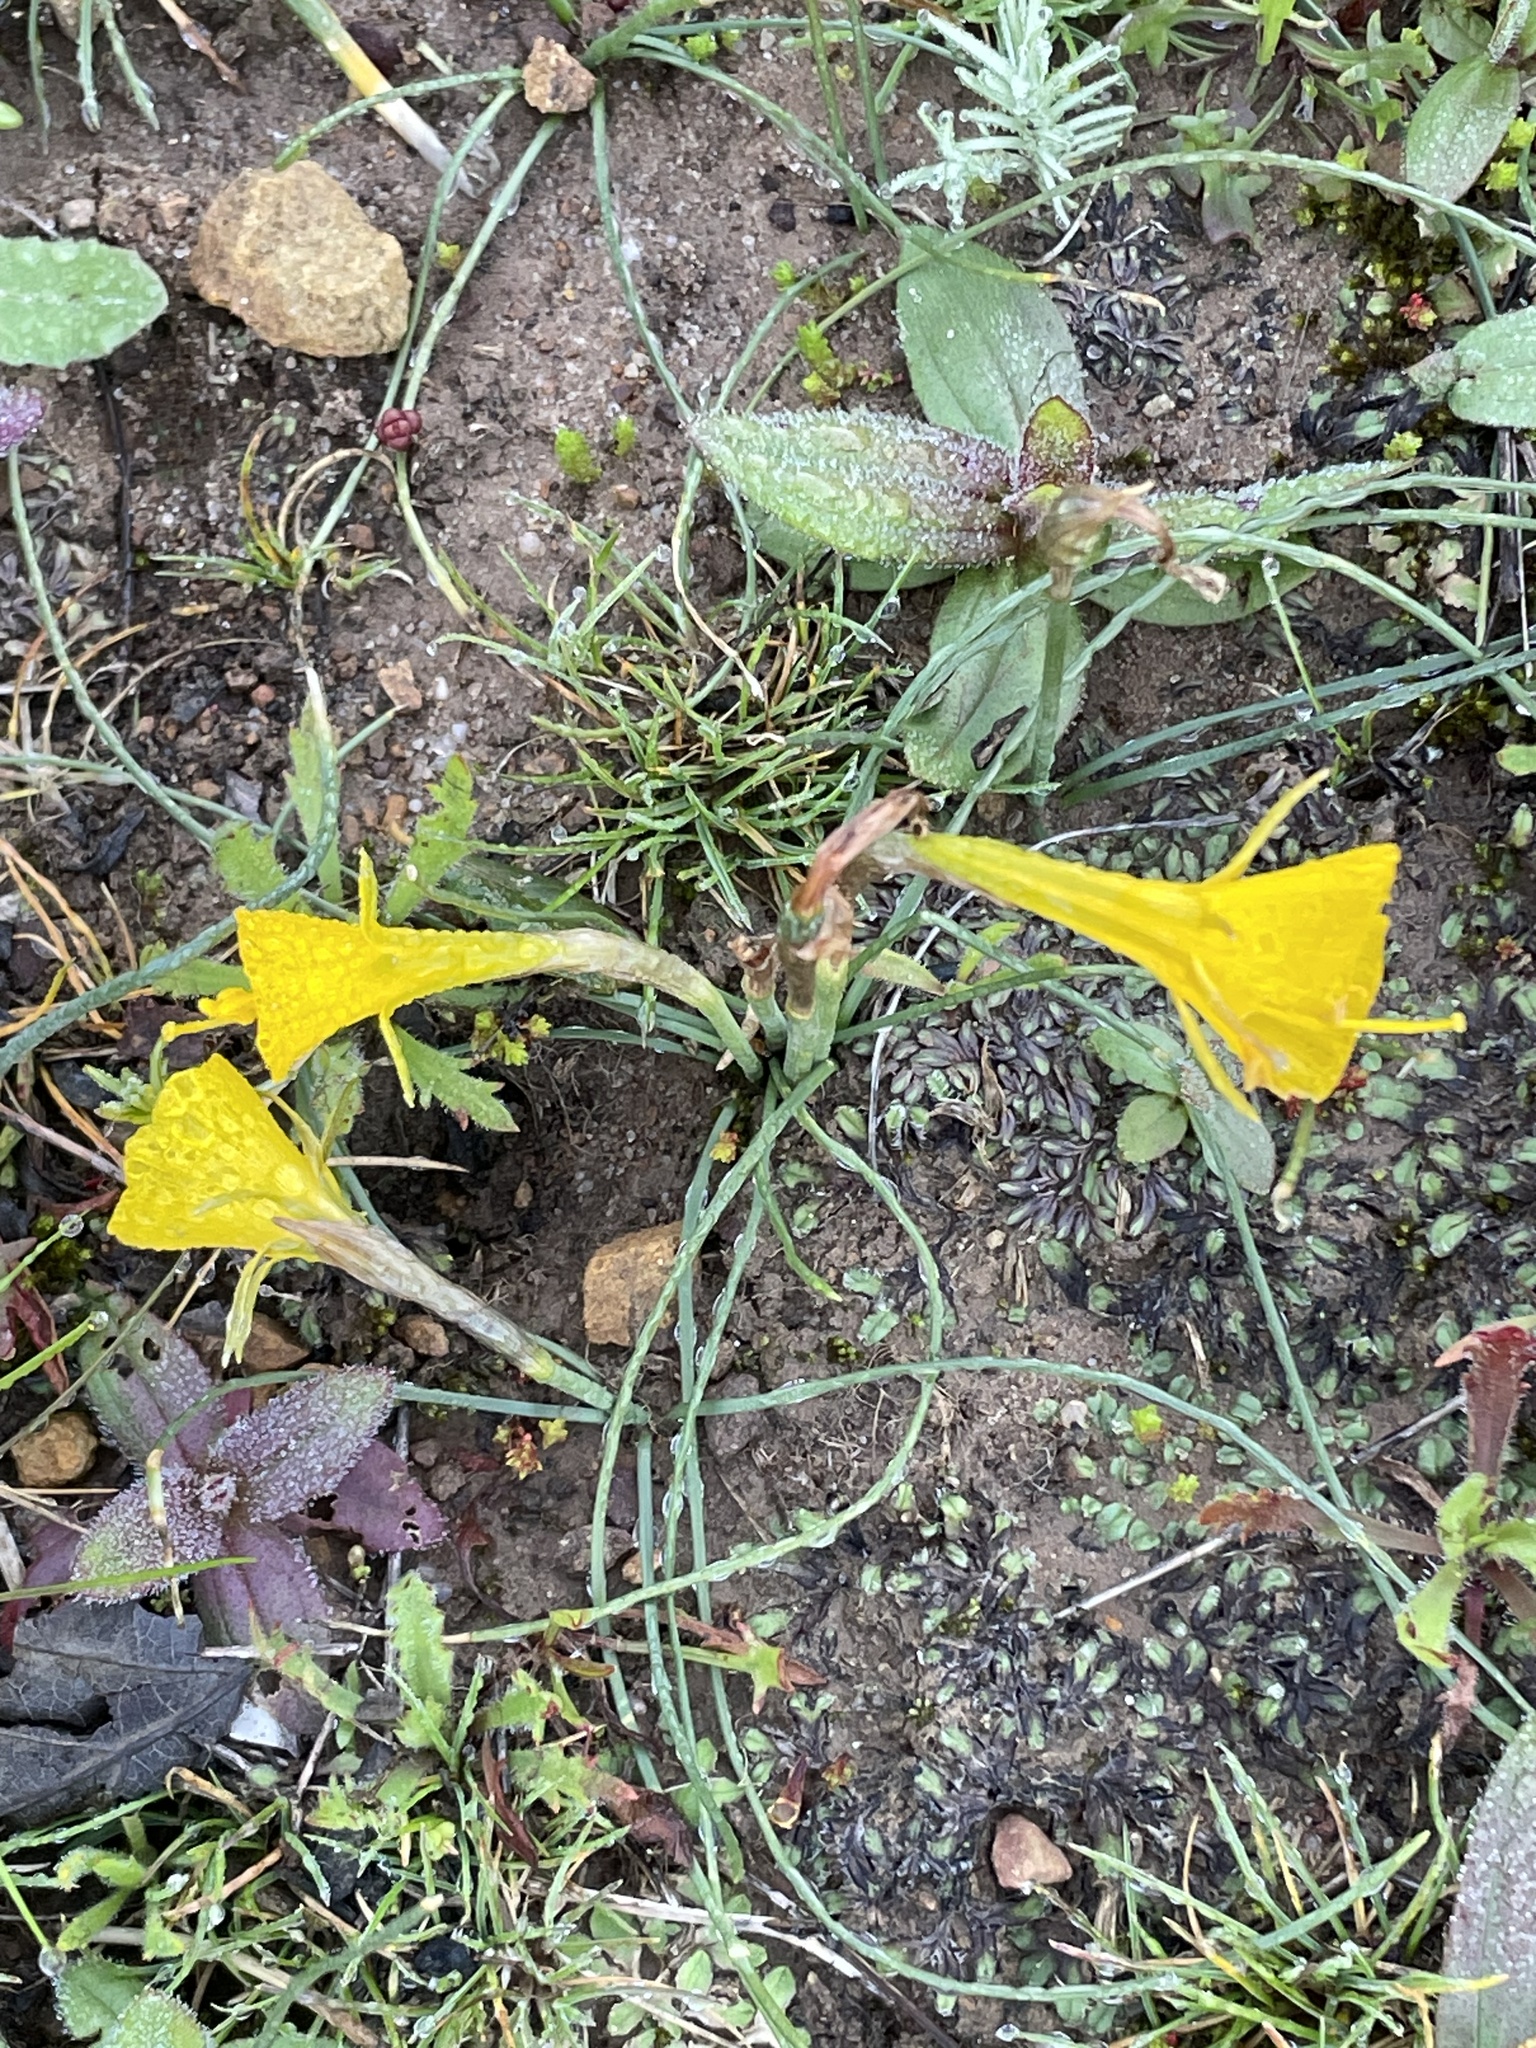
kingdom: Plantae
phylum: Tracheophyta
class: Liliopsida
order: Asparagales
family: Amaryllidaceae
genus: Narcissus
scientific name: Narcissus bulbocodium
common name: Hoop-petticoat daffodil
